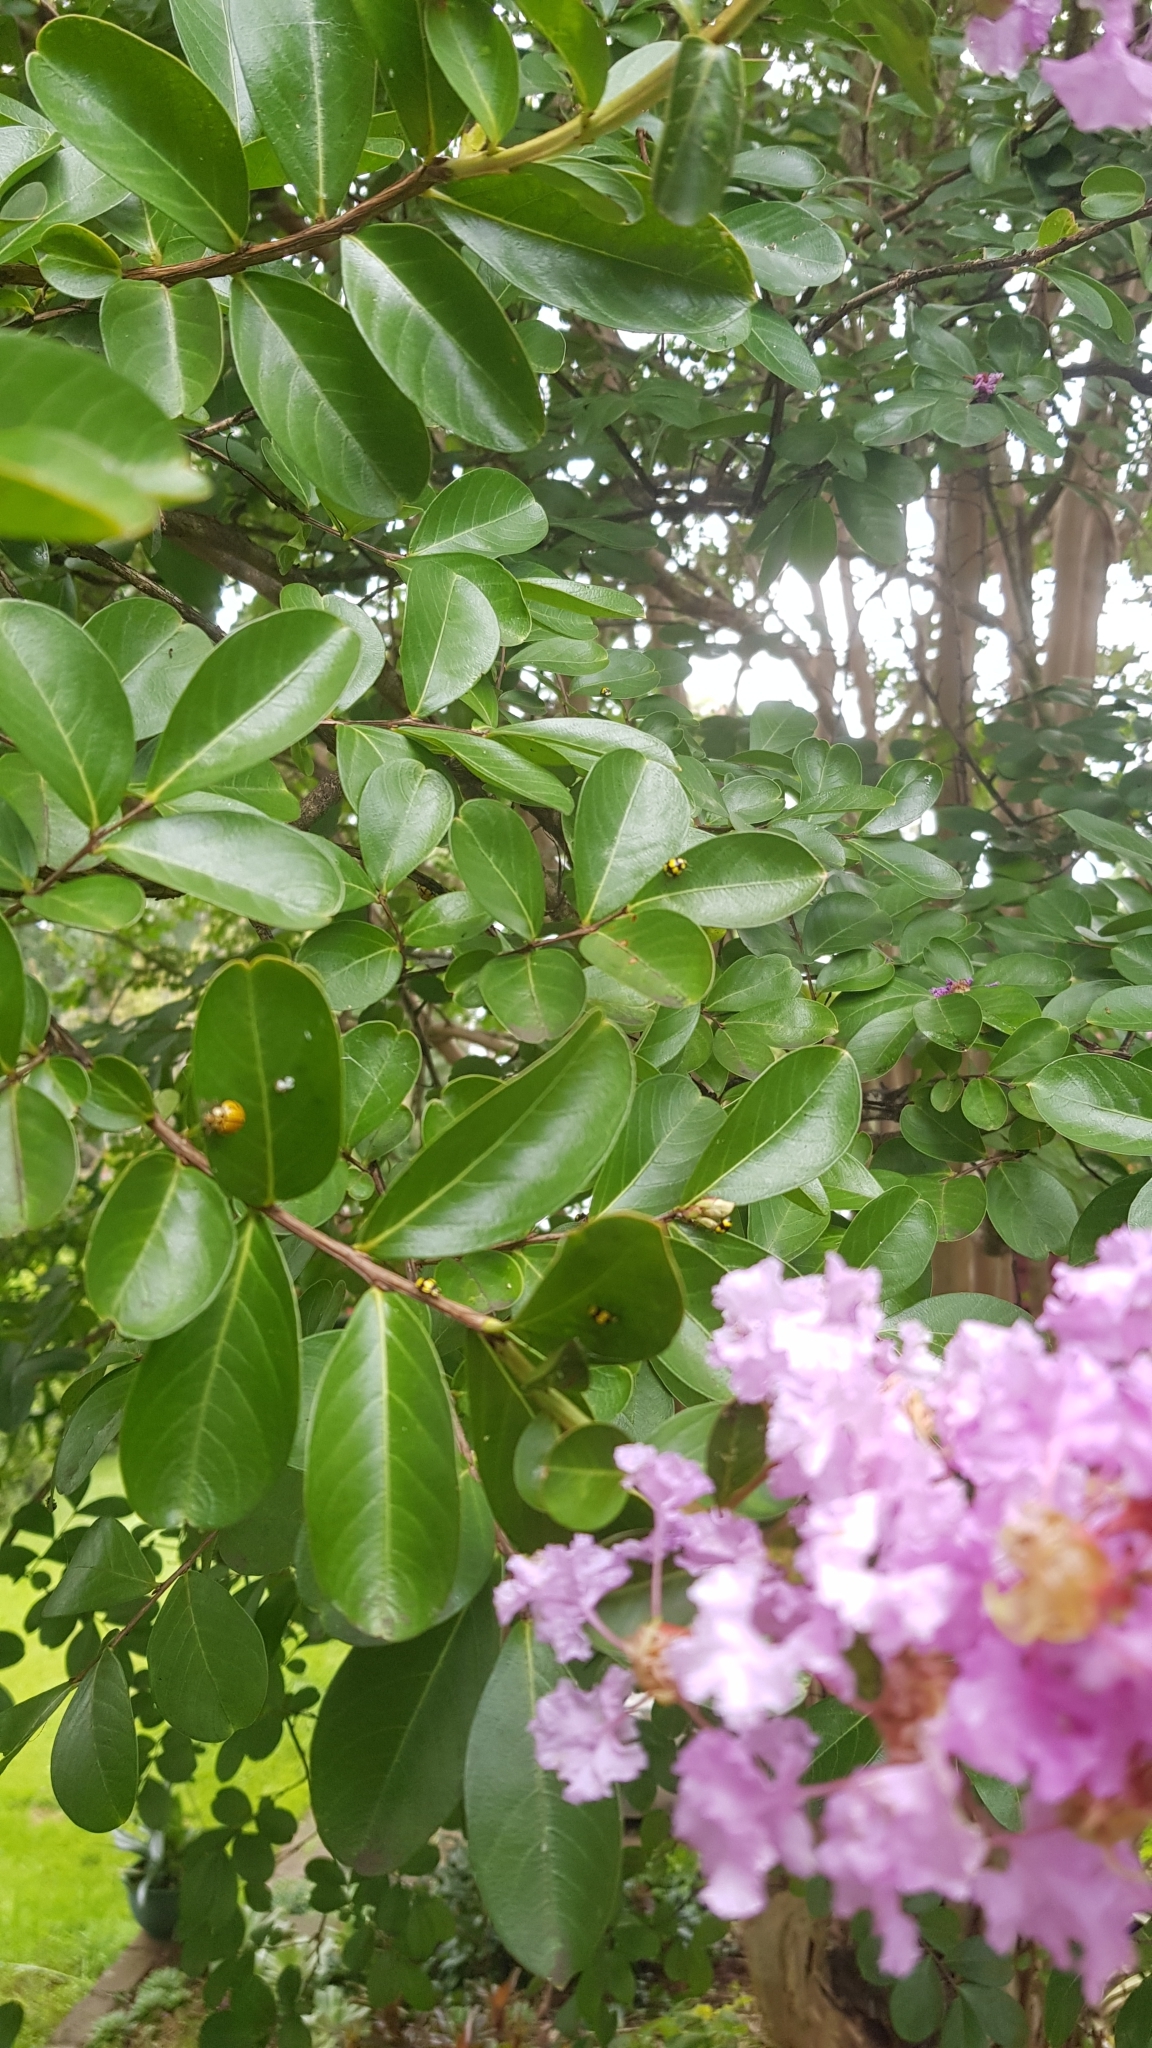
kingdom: Animalia
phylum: Arthropoda
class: Insecta
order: Coleoptera
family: Coccinellidae
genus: Illeis
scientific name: Illeis galbula
